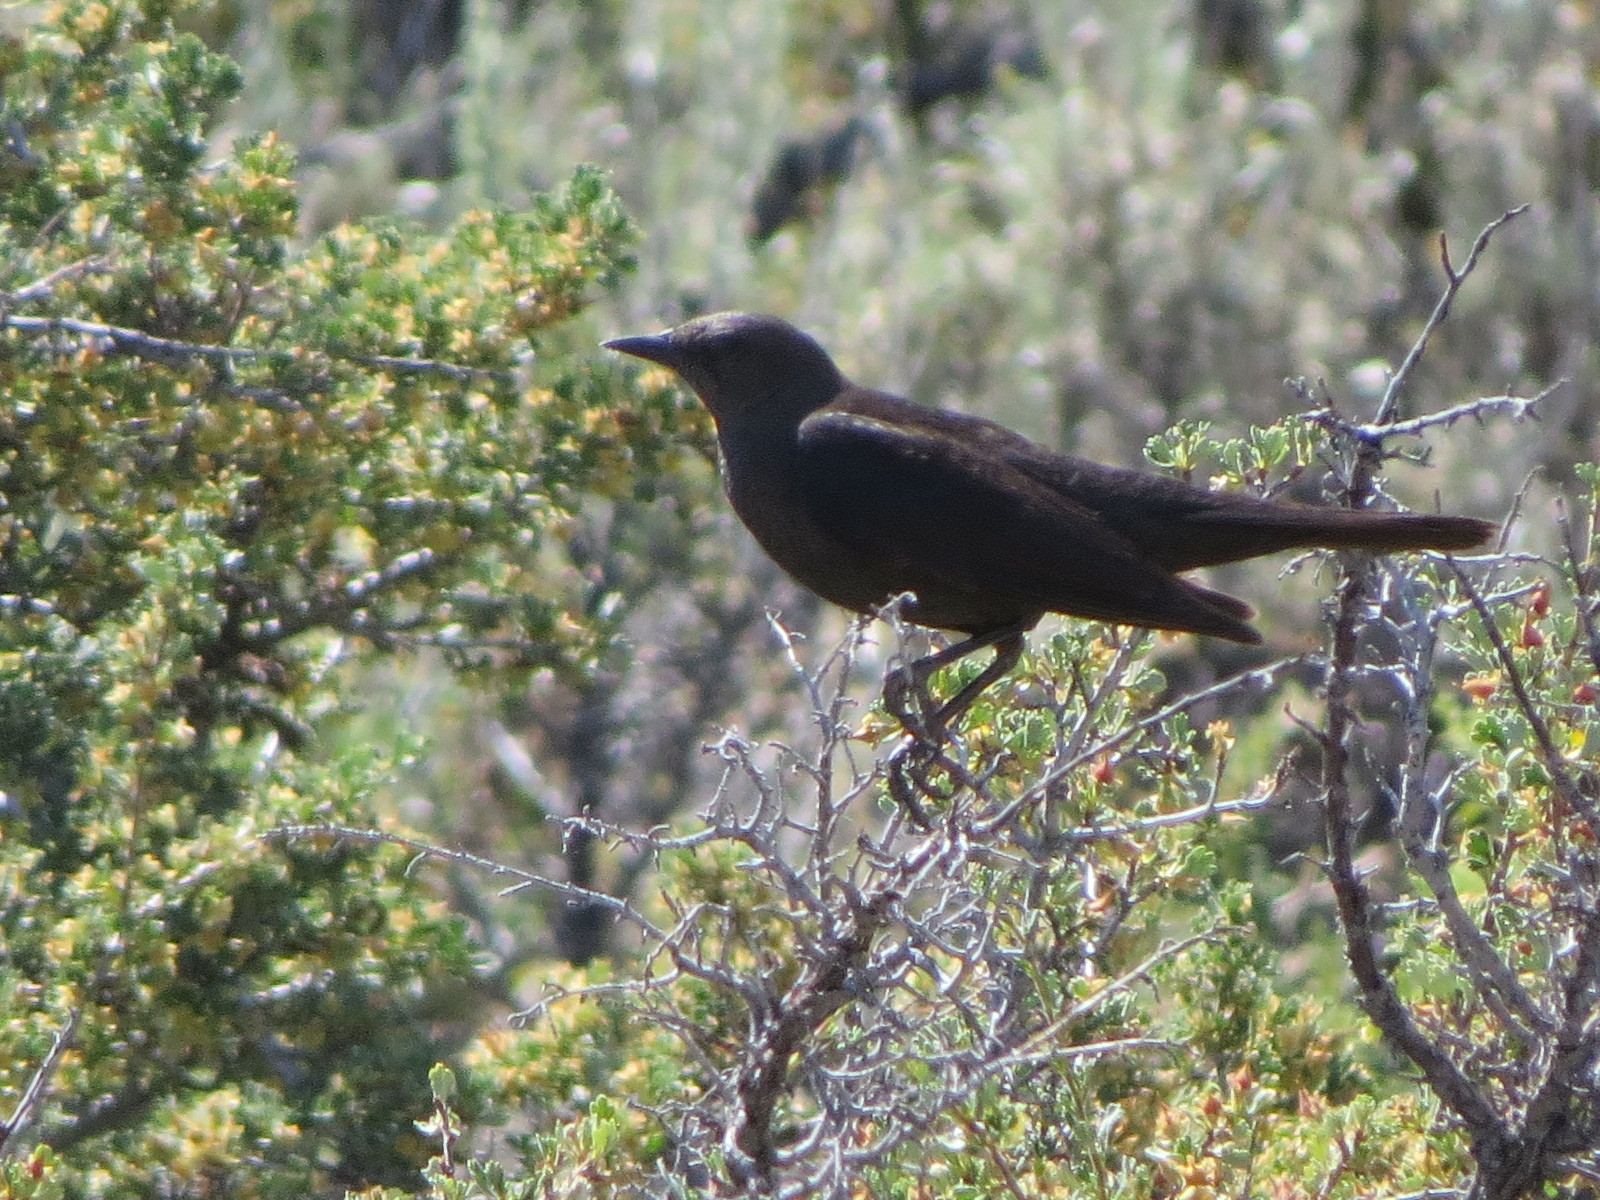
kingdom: Animalia
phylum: Chordata
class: Aves
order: Passeriformes
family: Icteridae
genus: Euphagus
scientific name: Euphagus cyanocephalus
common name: Brewer's blackbird
